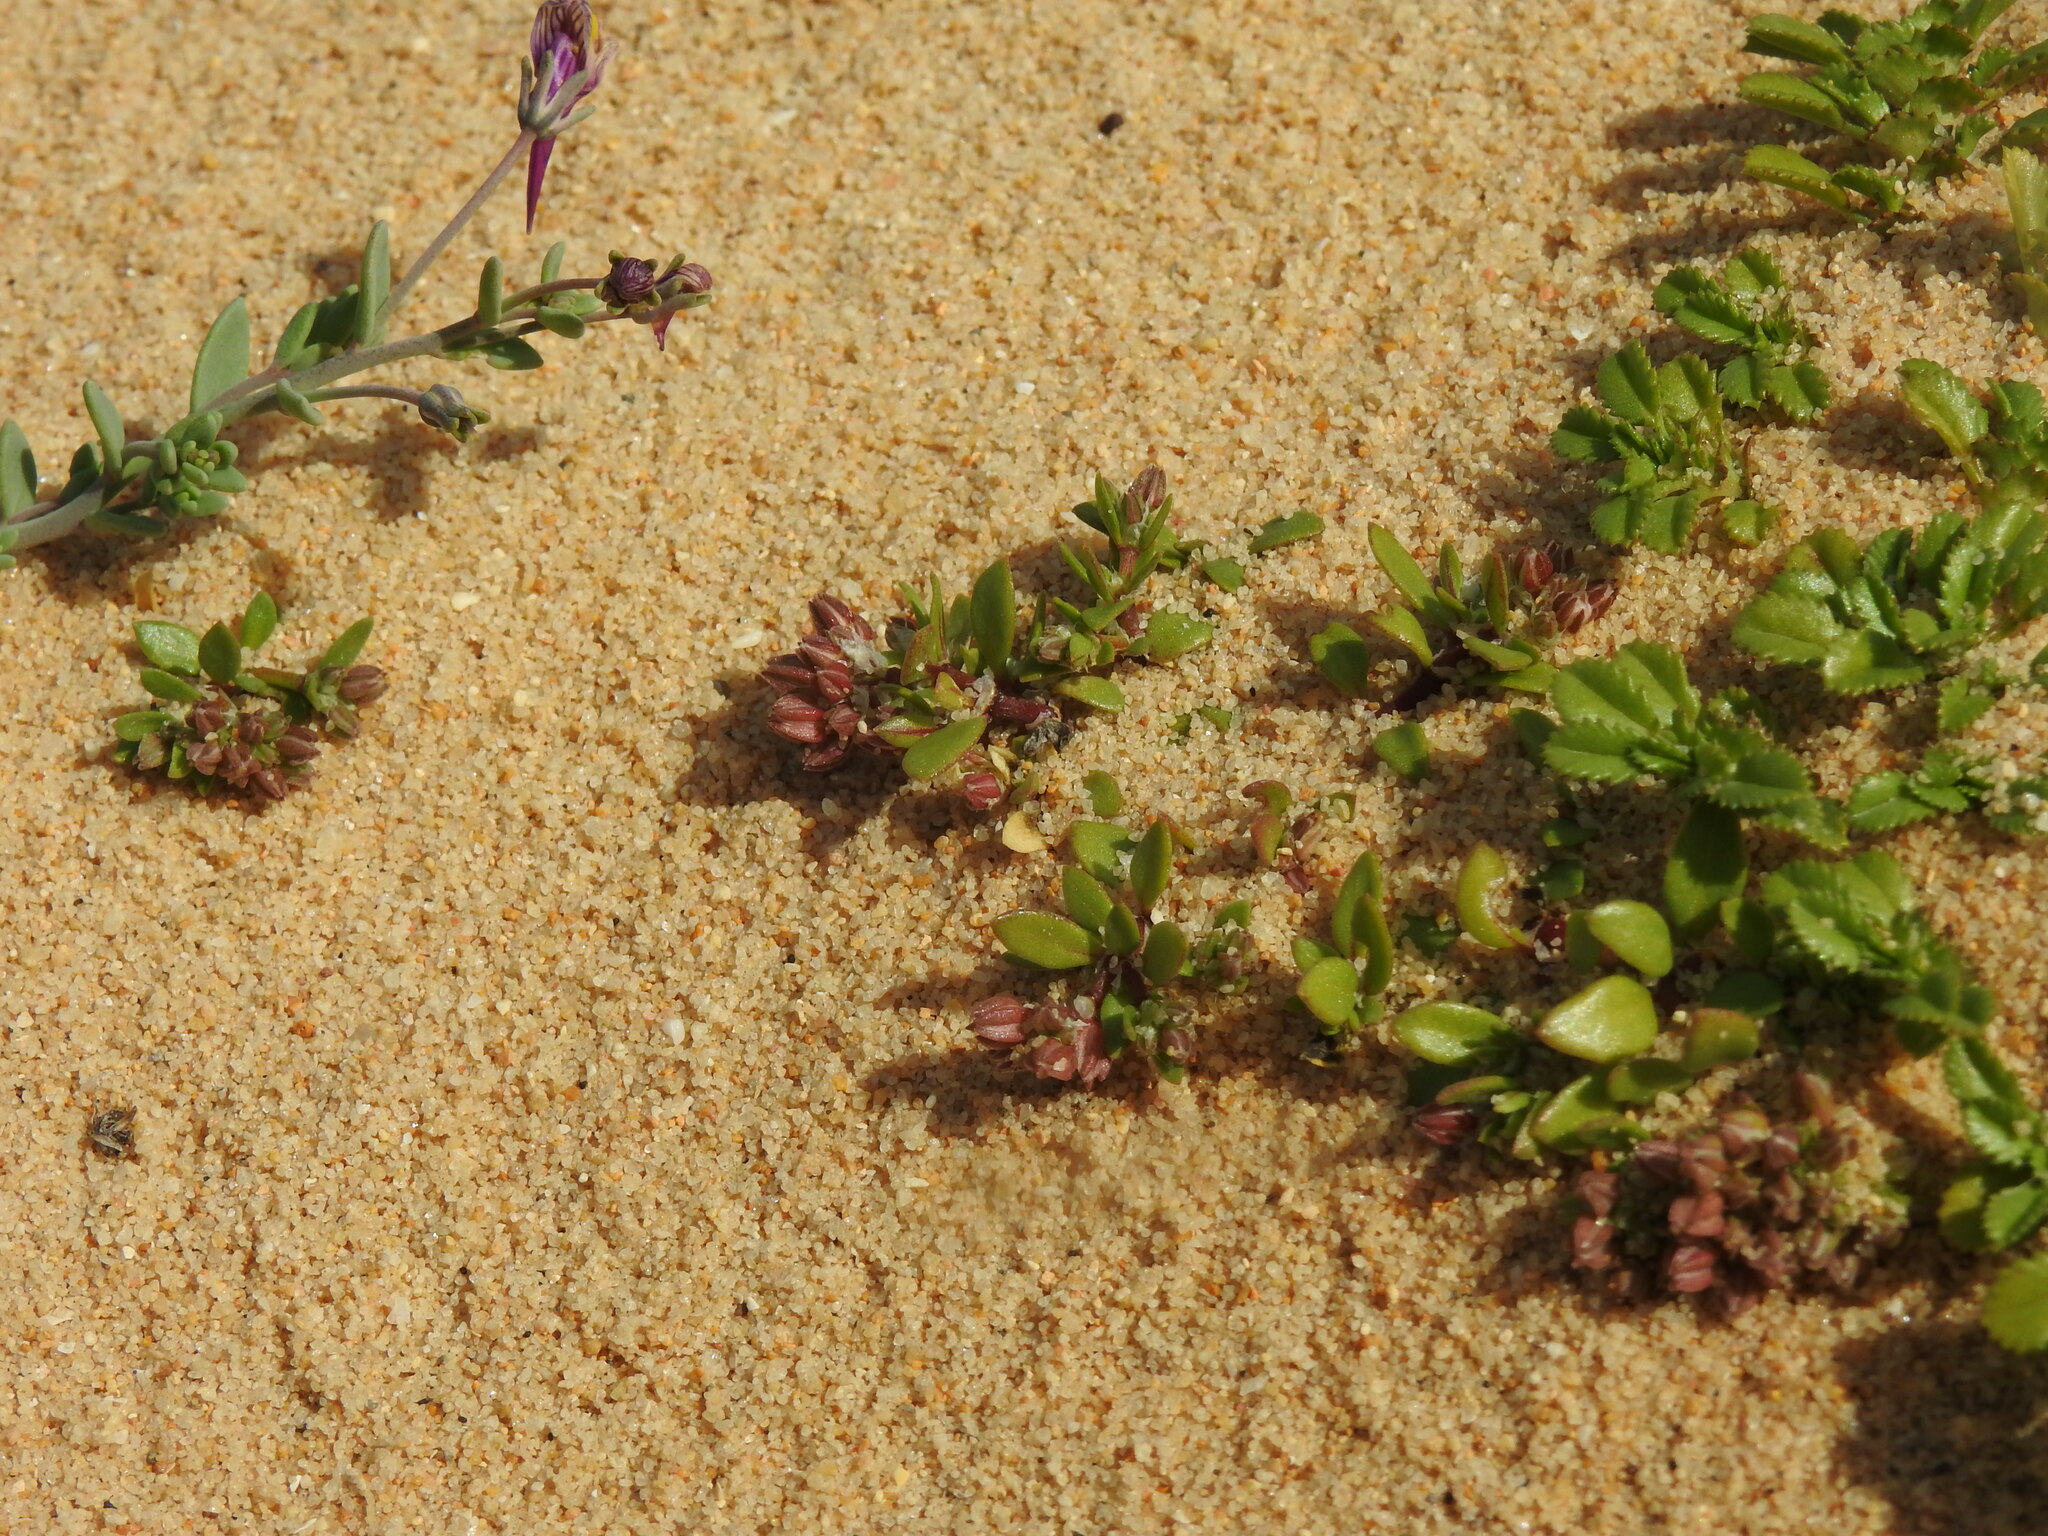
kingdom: Plantae
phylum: Tracheophyta
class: Magnoliopsida
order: Caryophyllales
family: Caryophyllaceae
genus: Polycarpon
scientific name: Polycarpon alsinifolium
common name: Fourleaf manyseed
